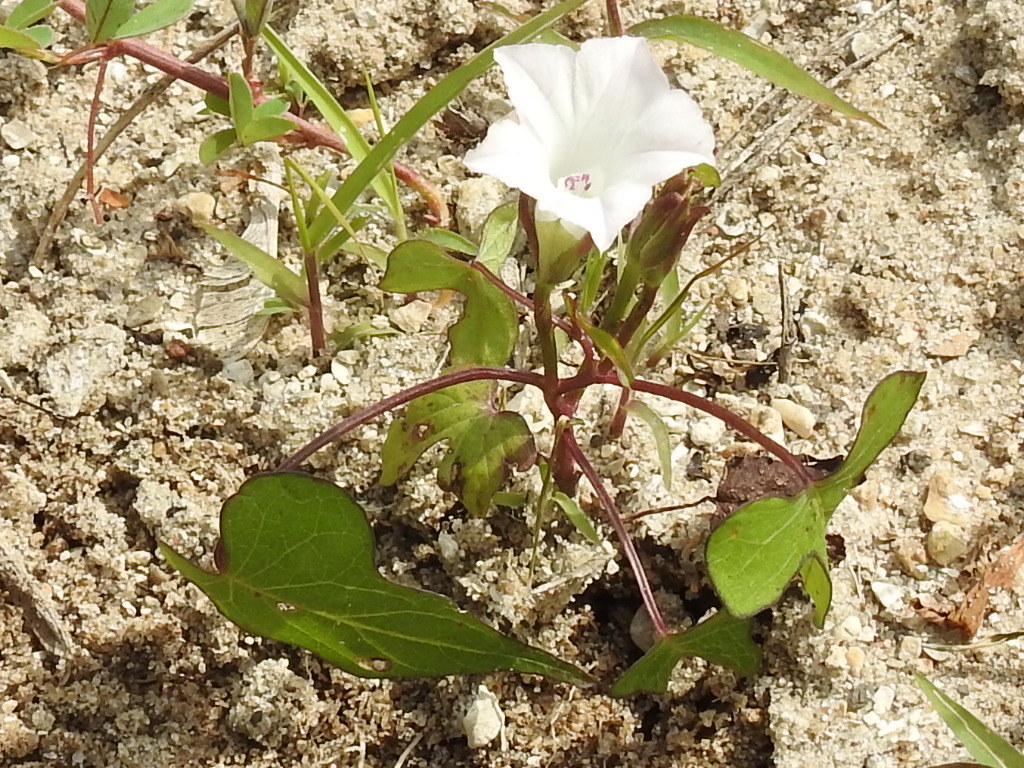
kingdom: Plantae
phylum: Tracheophyta
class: Magnoliopsida
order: Solanales
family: Convolvulaceae
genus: Ipomoea
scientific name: Ipomoea lacunosa
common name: White morning-glory
